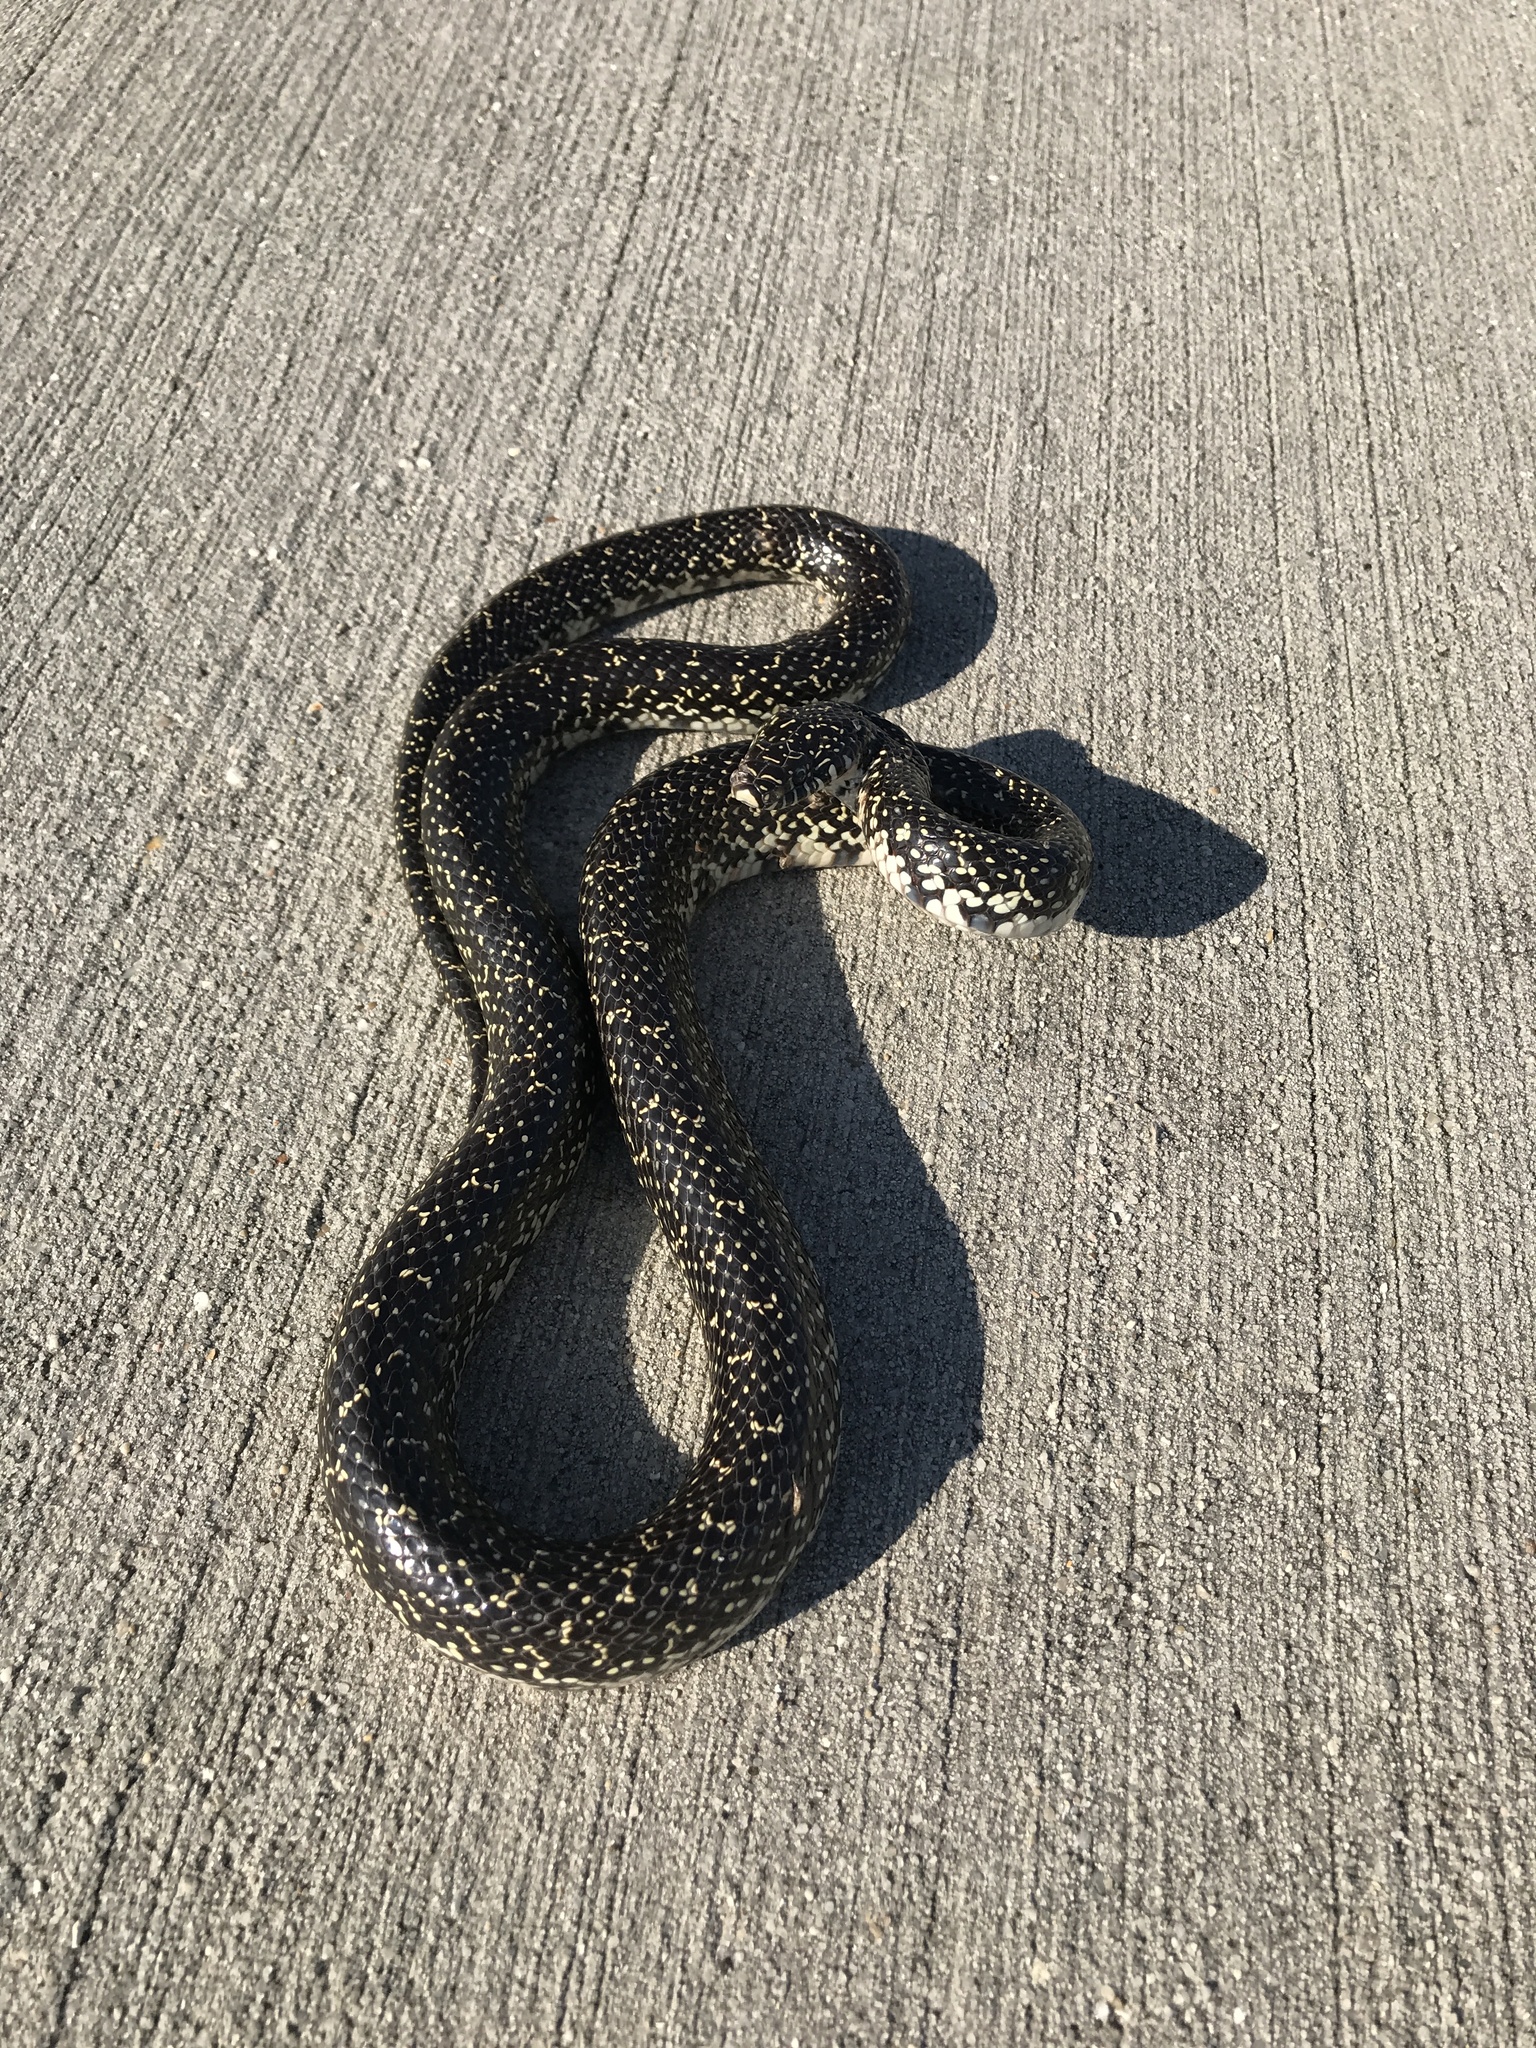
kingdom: Animalia
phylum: Chordata
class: Squamata
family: Colubridae
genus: Lampropeltis
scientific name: Lampropeltis holbrooki
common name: Speckled kingsnake
